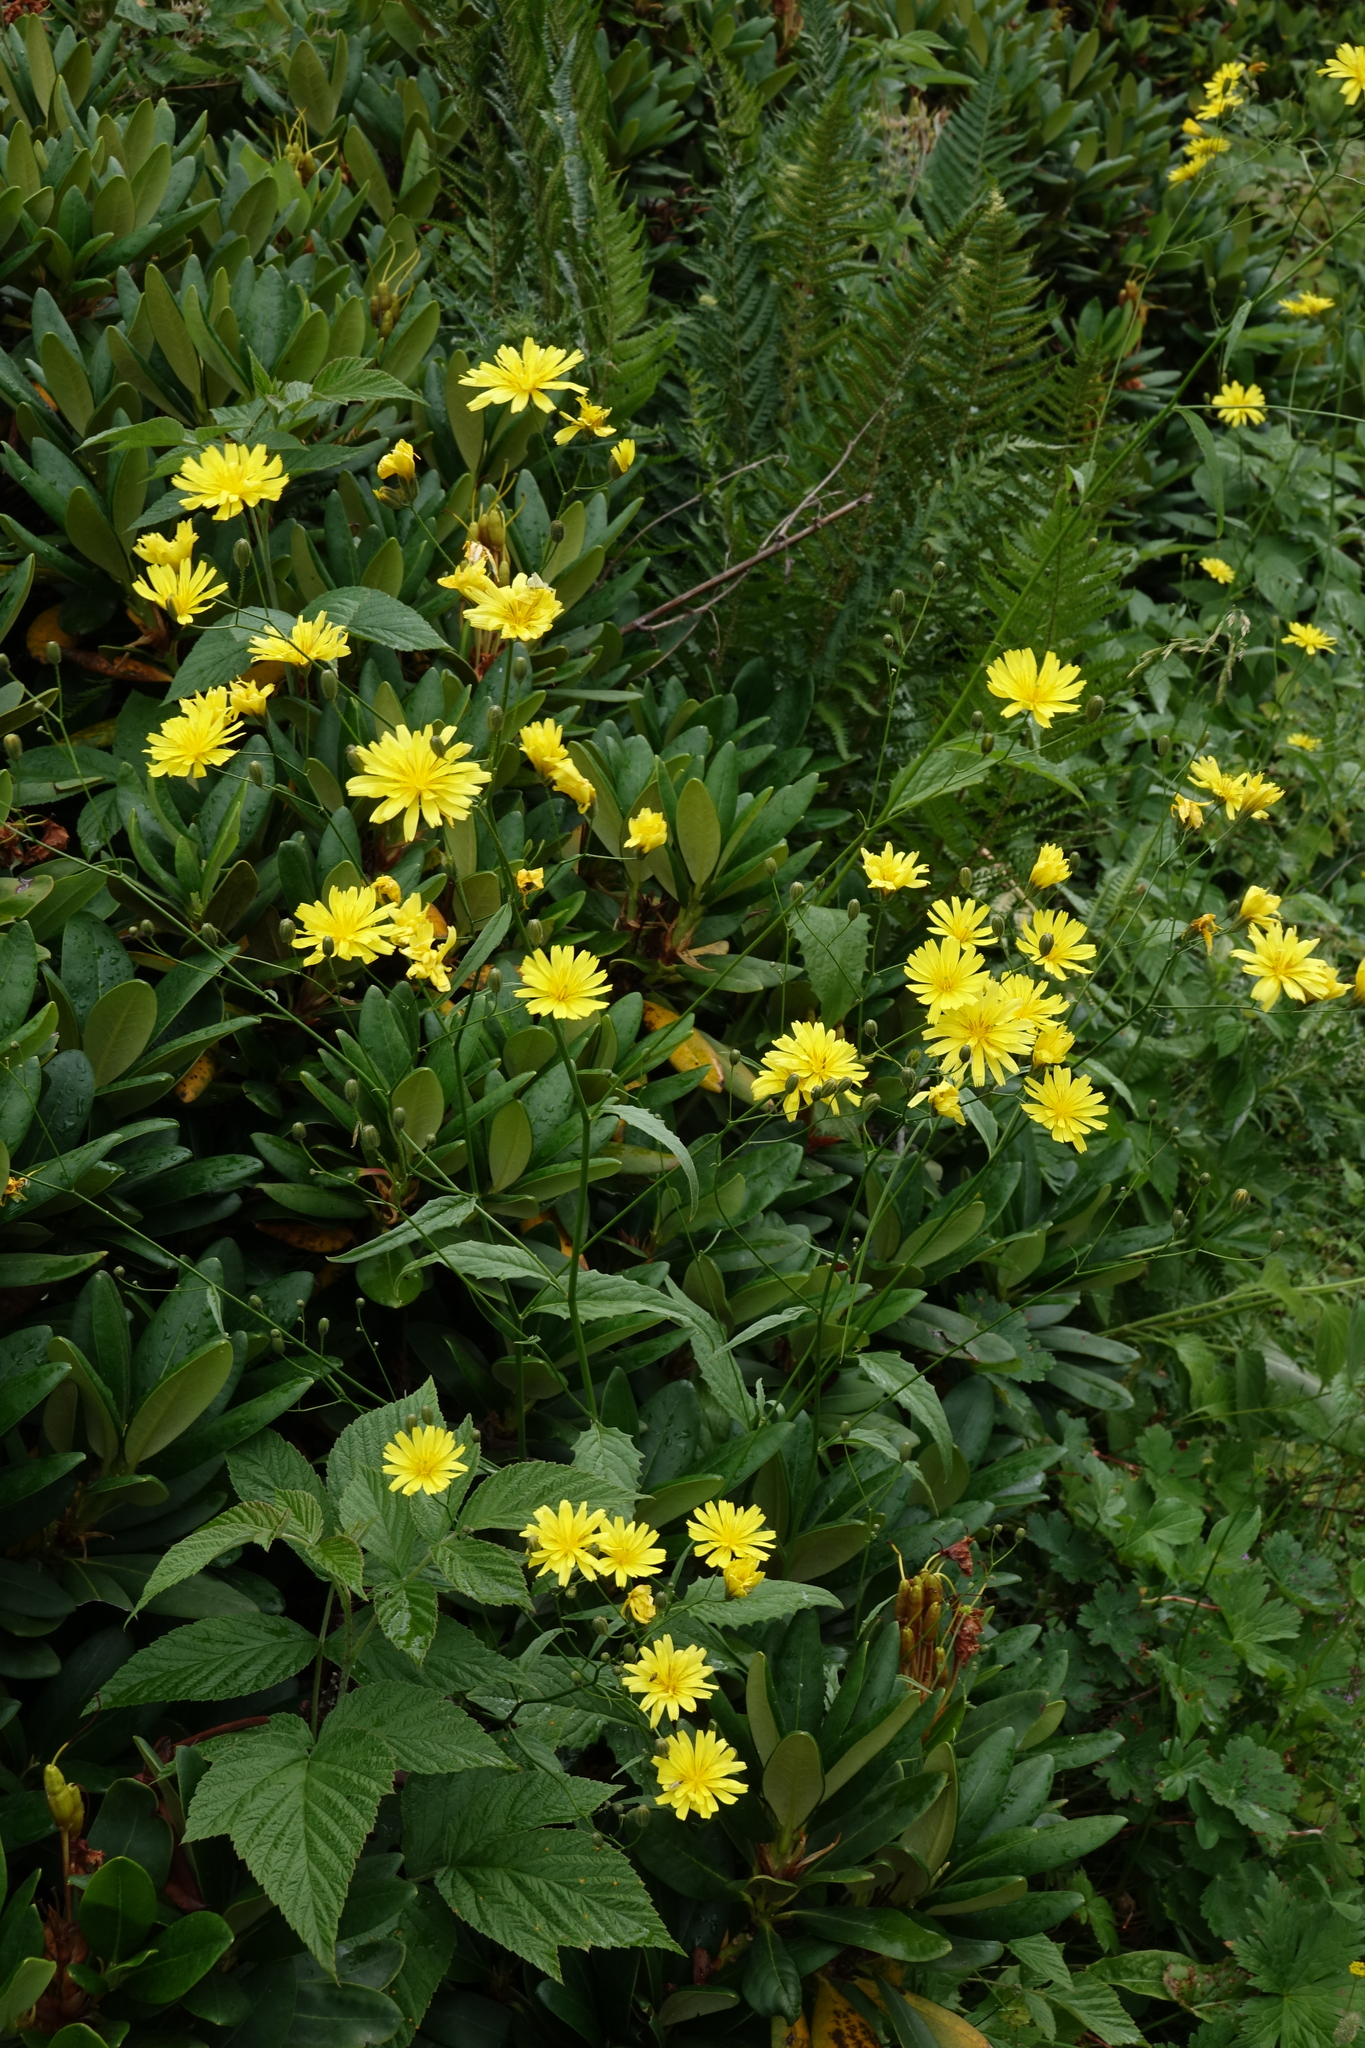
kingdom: Plantae
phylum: Tracheophyta
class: Magnoliopsida
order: Asterales
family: Asteraceae
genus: Lapsana
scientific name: Lapsana communis
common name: Nipplewort
